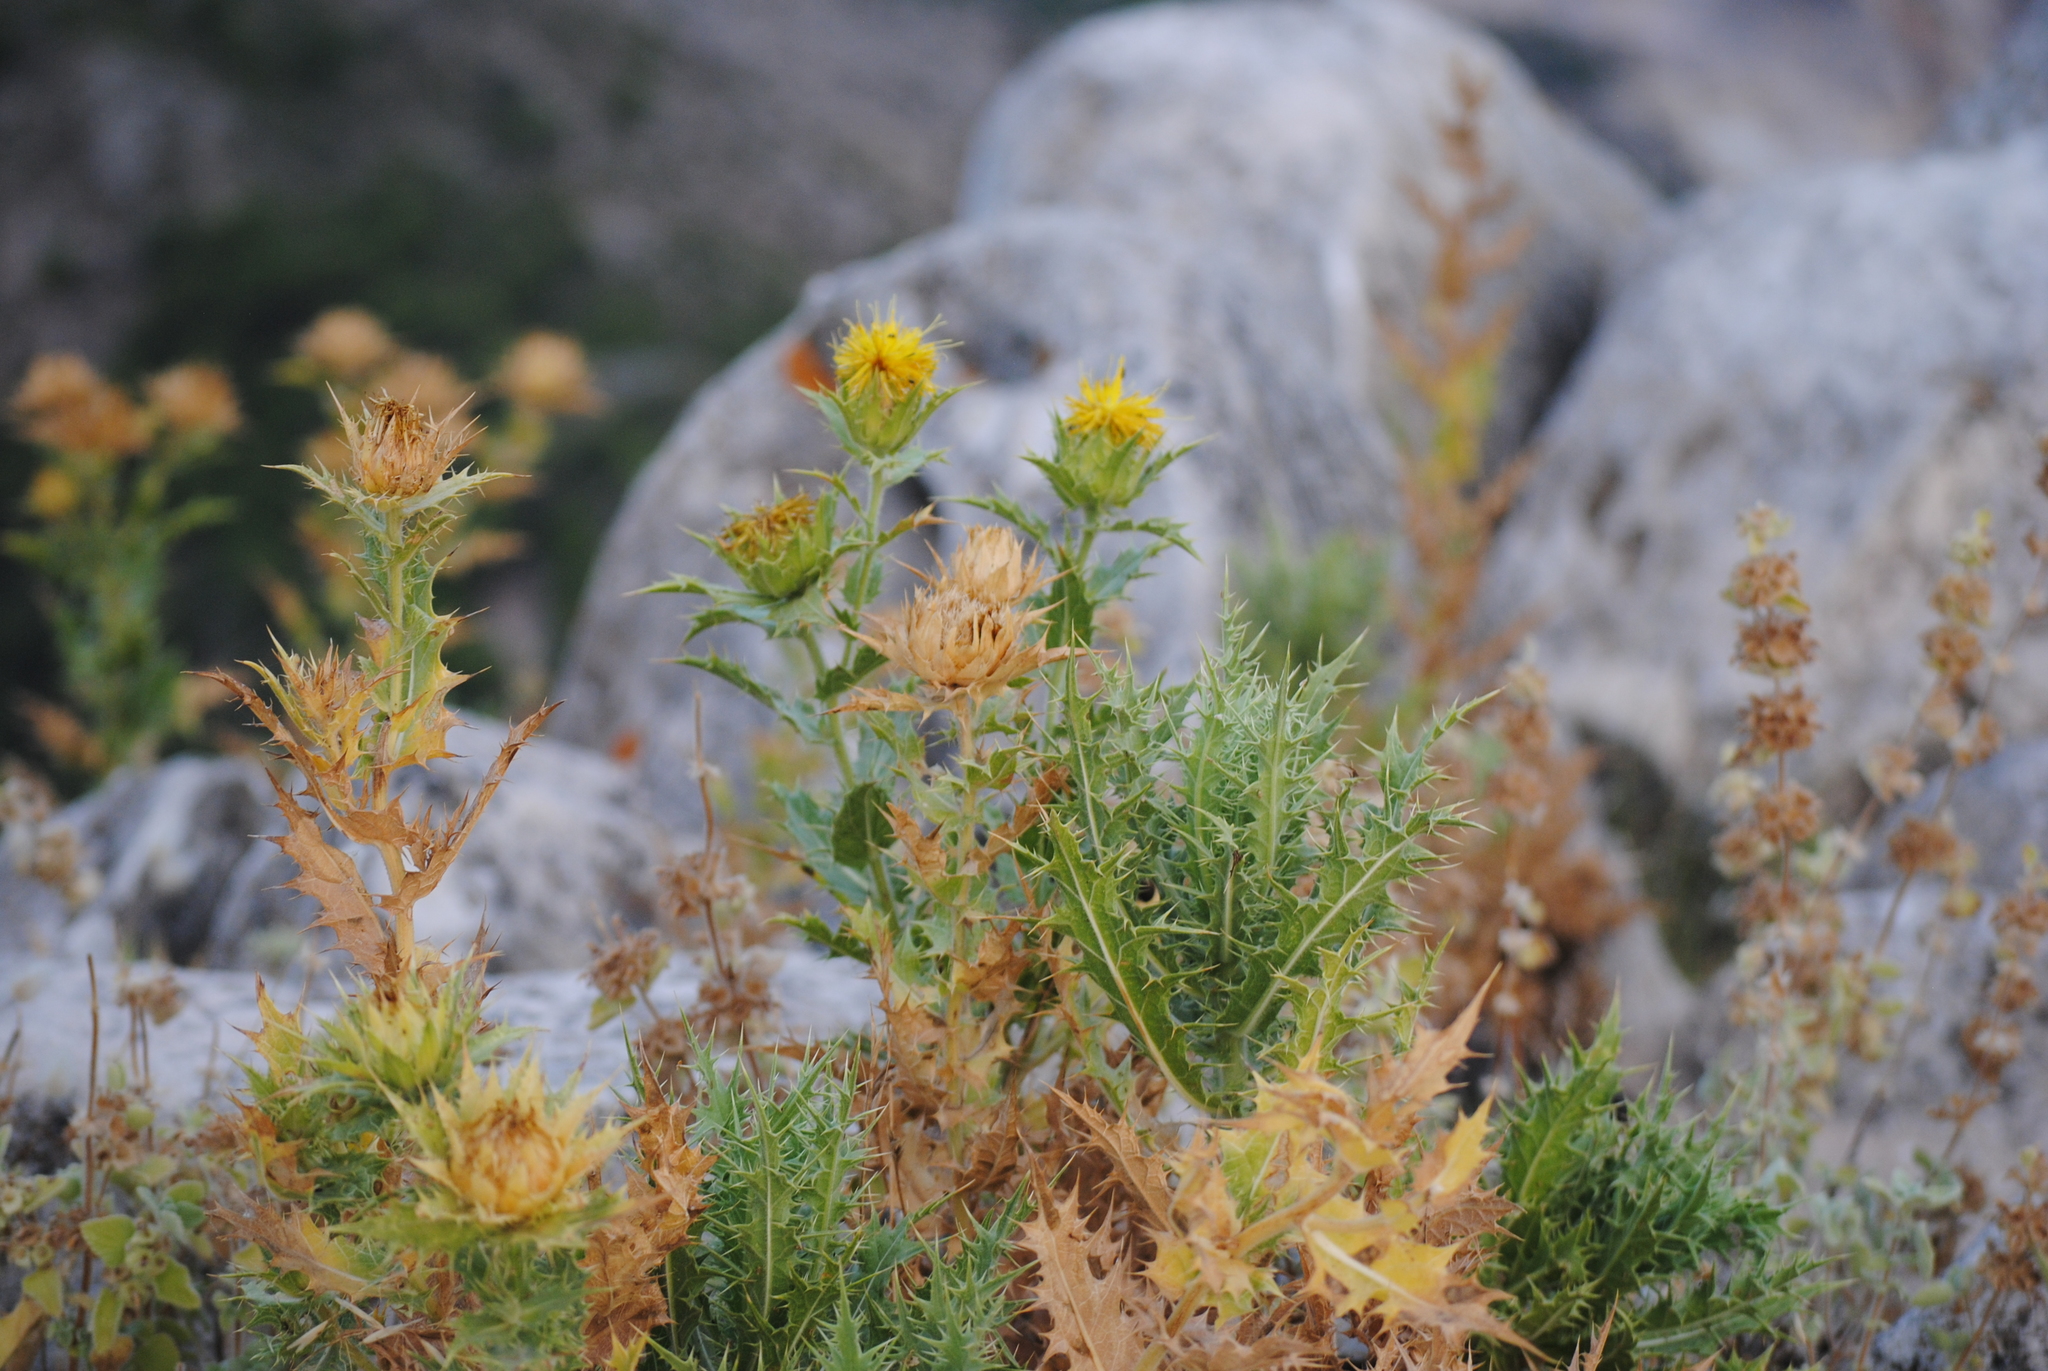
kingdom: Plantae
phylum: Tracheophyta
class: Magnoliopsida
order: Asterales
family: Asteraceae
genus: Phonus
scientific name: Phonus arborescens
